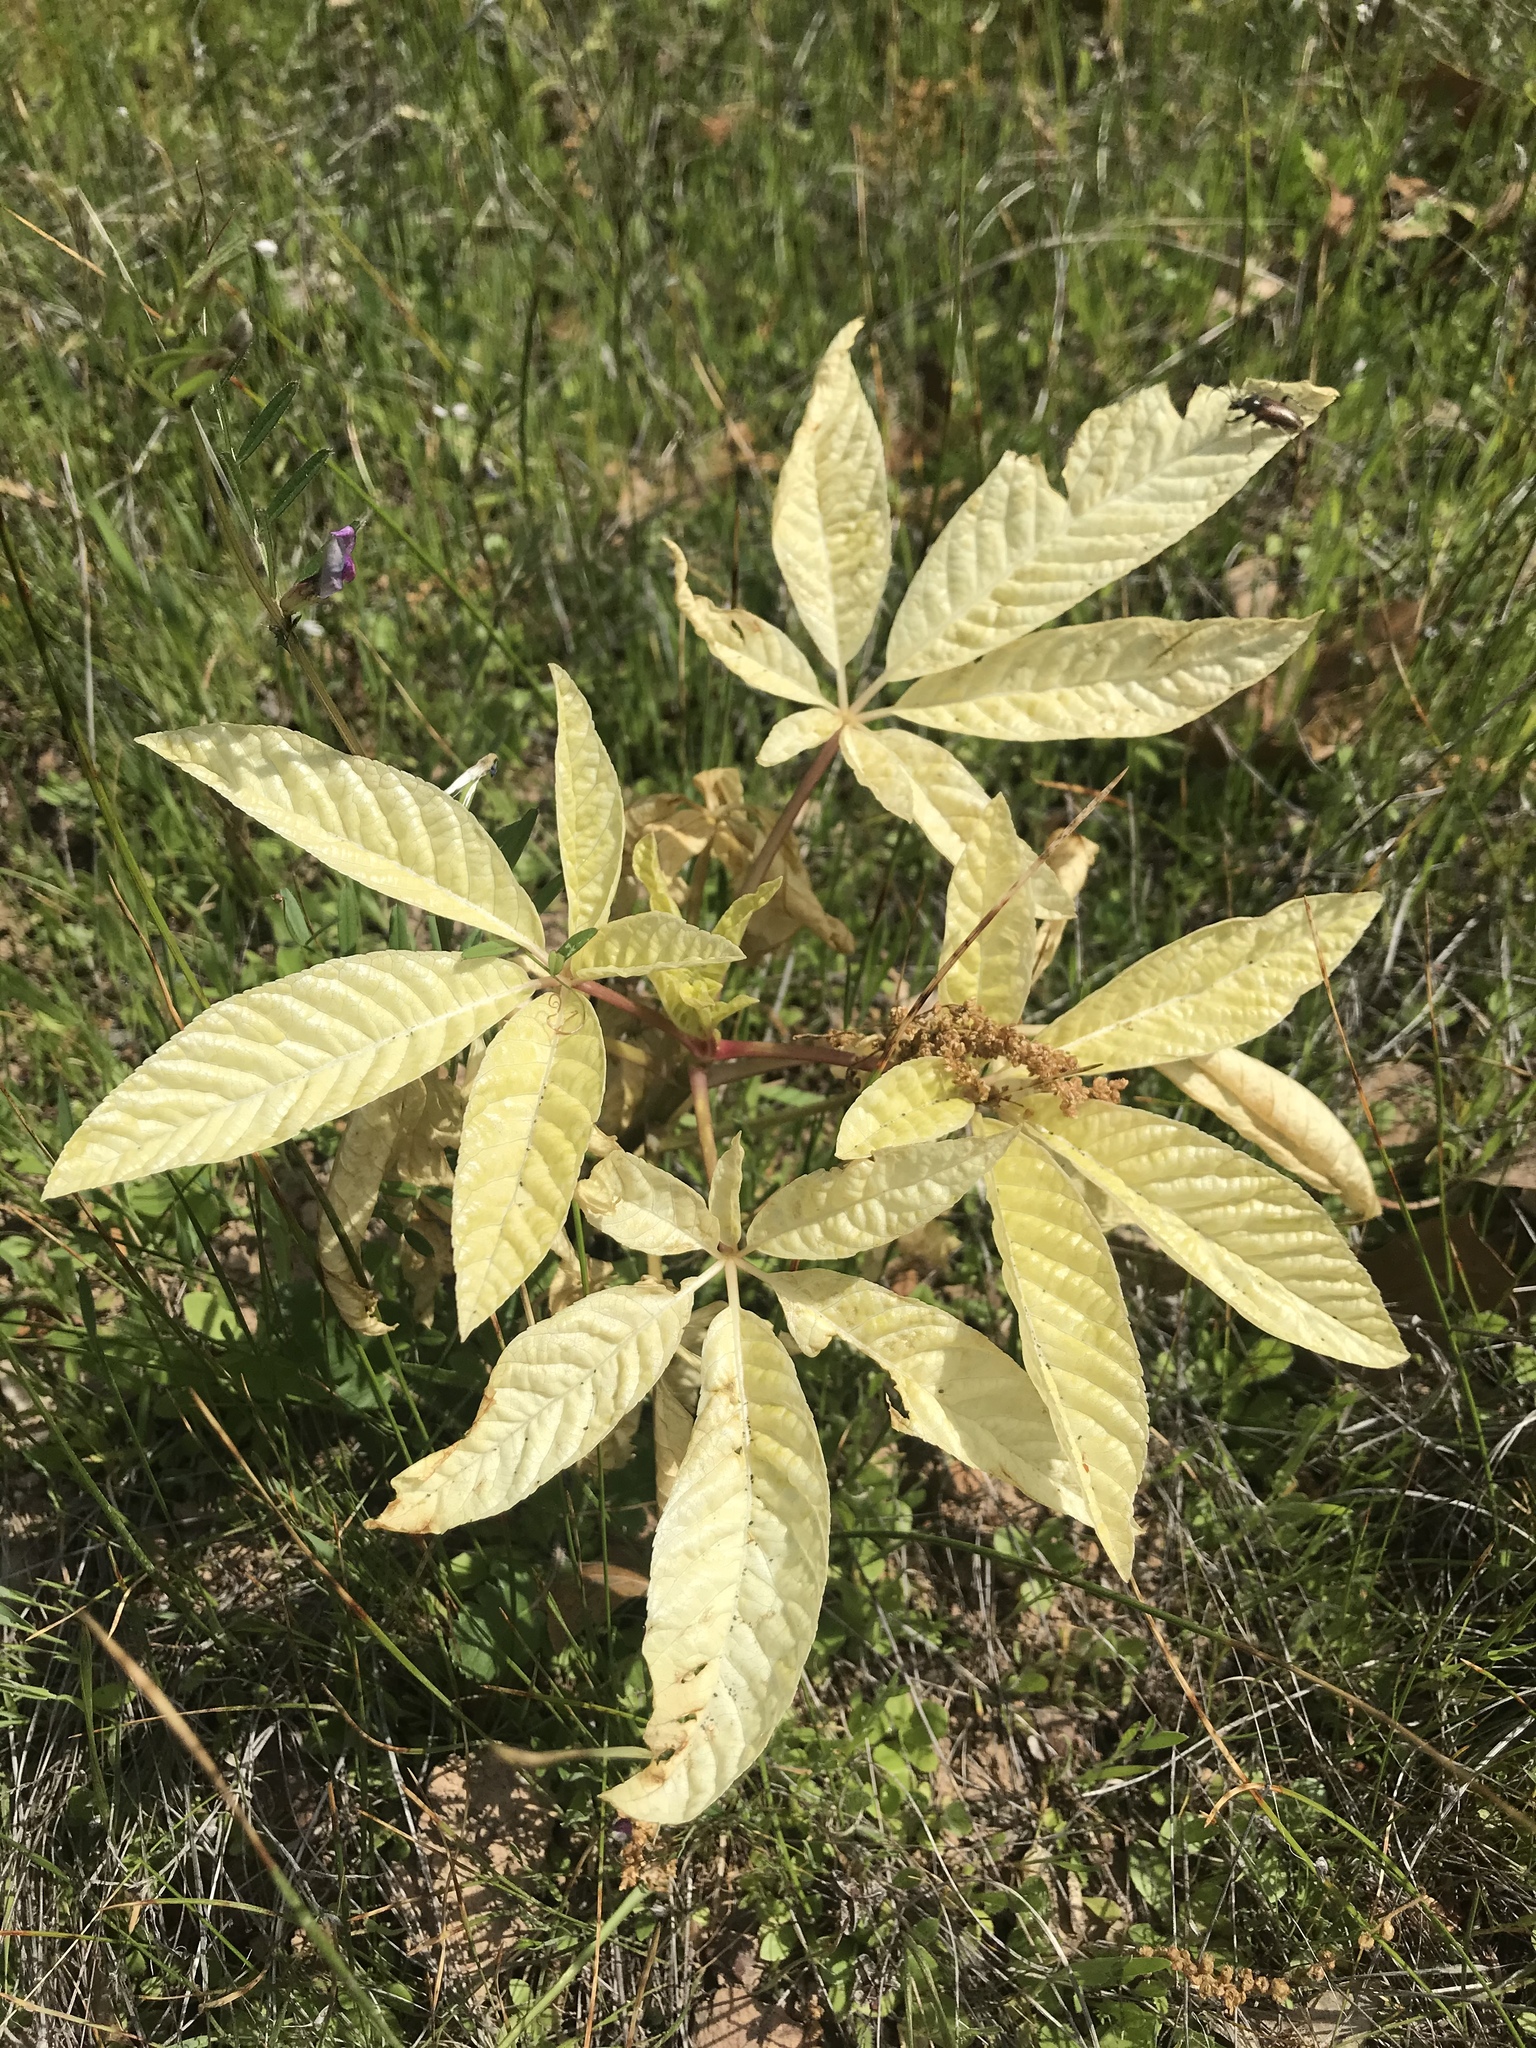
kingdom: Plantae
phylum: Tracheophyta
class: Magnoliopsida
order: Sapindales
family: Sapindaceae
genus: Aesculus
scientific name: Aesculus californica
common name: California buckeye
